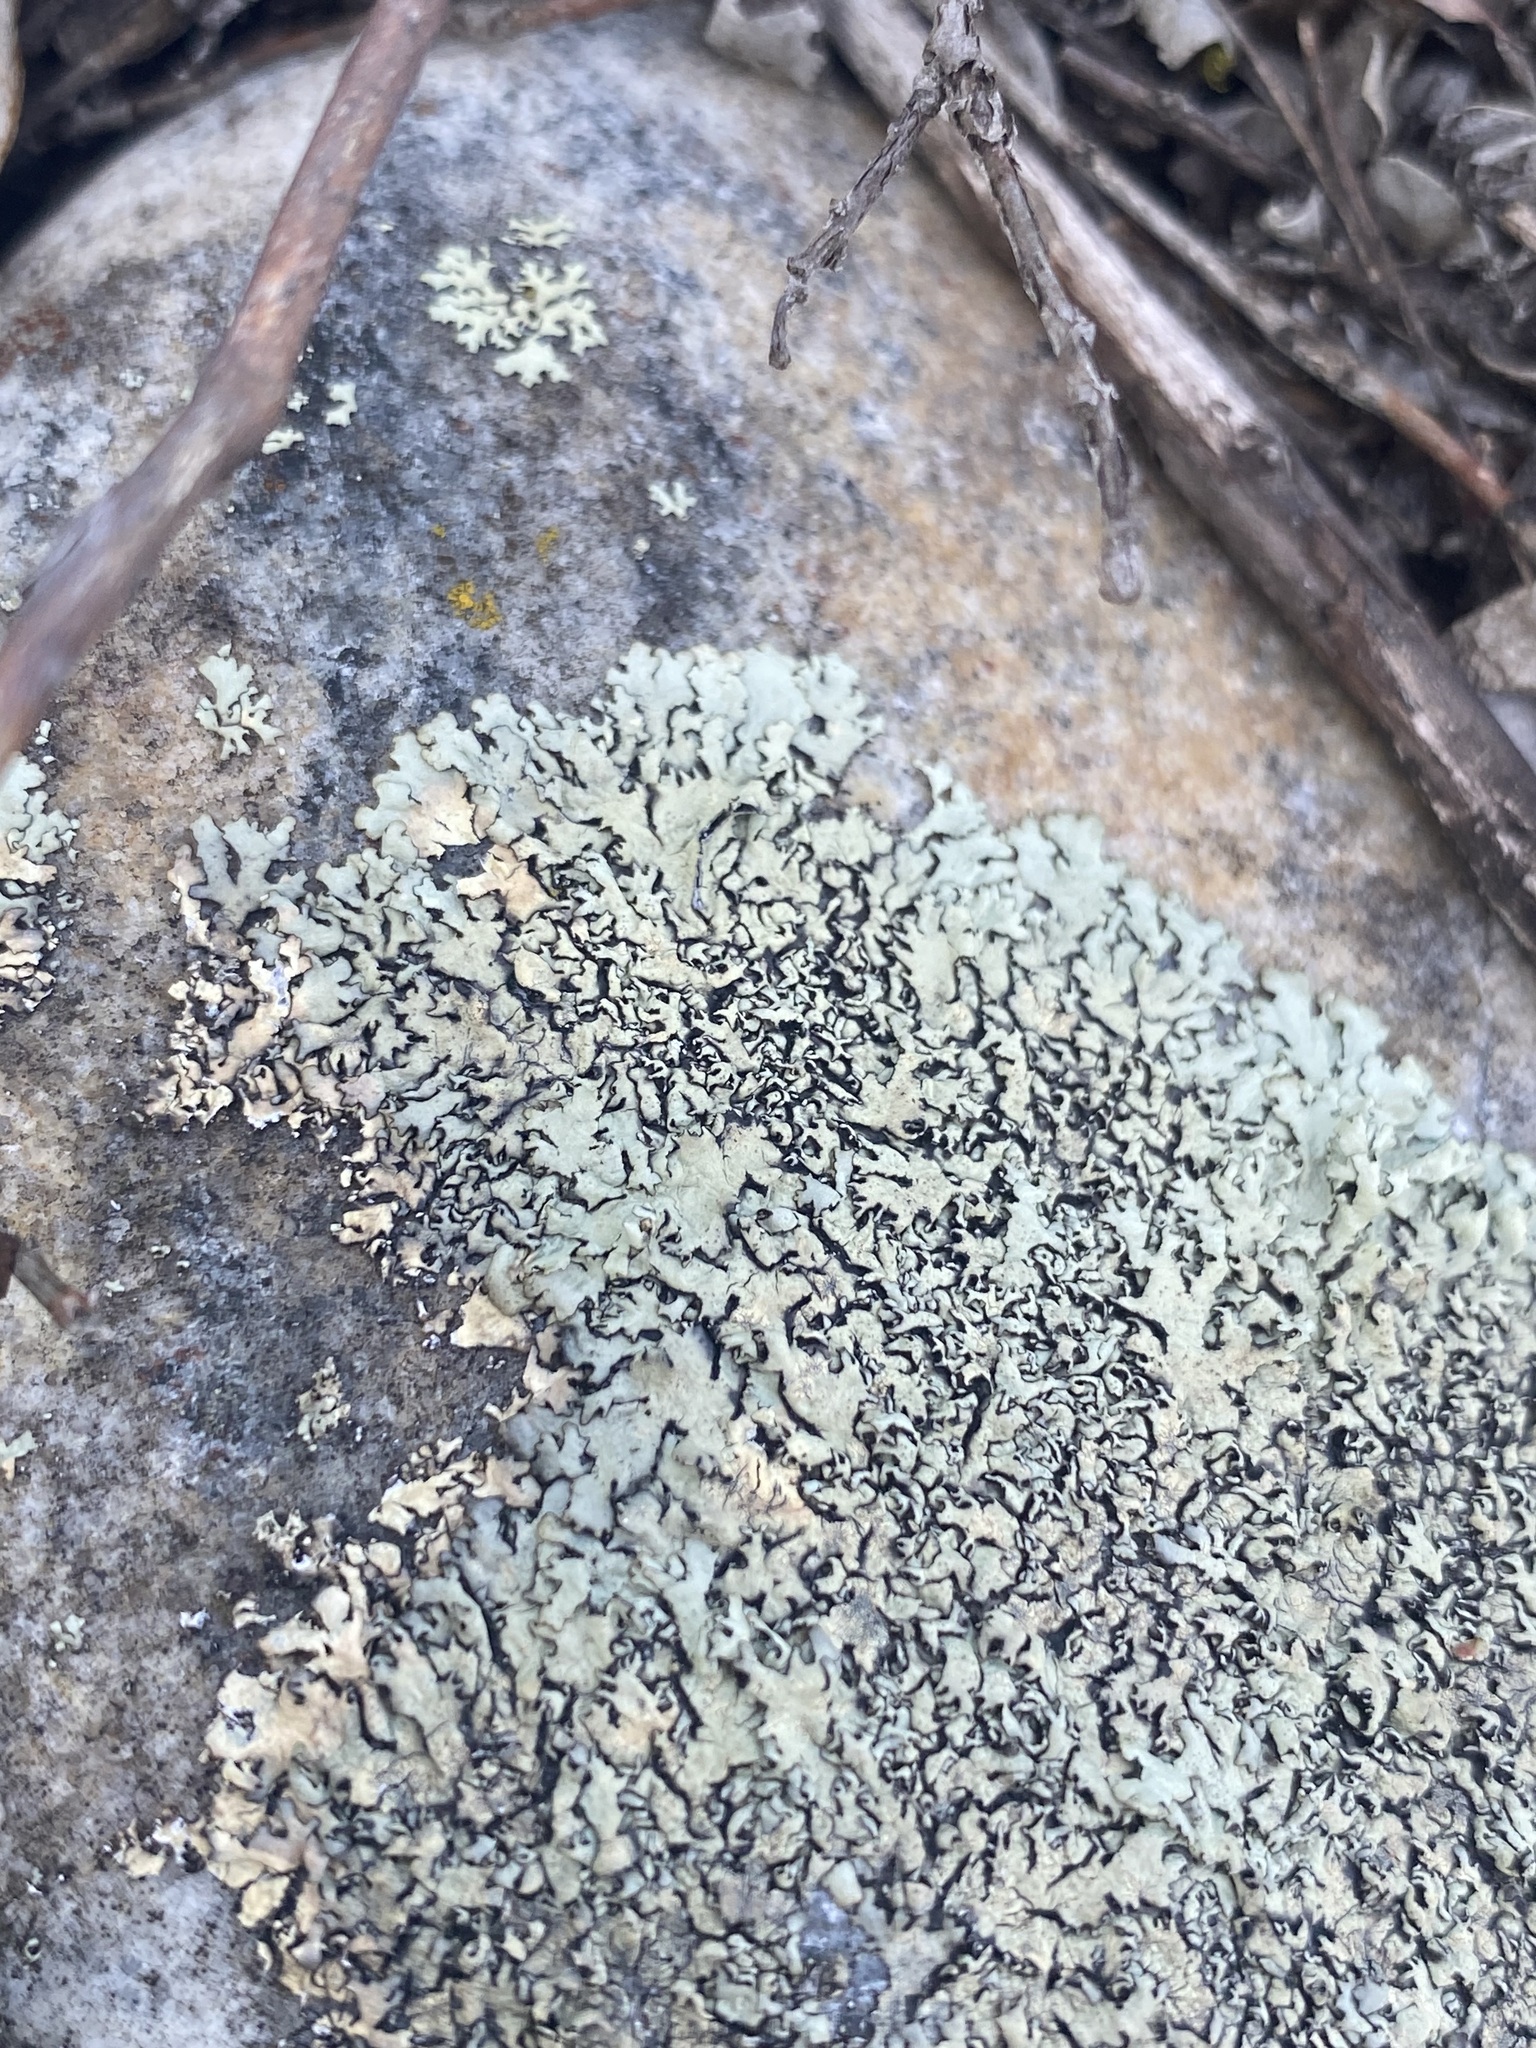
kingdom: Fungi
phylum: Ascomycota
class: Lecanoromycetes
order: Lecanorales
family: Parmeliaceae
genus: Xanthoparmelia
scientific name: Xanthoparmelia cumberlandia
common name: Cumberland rock shield
